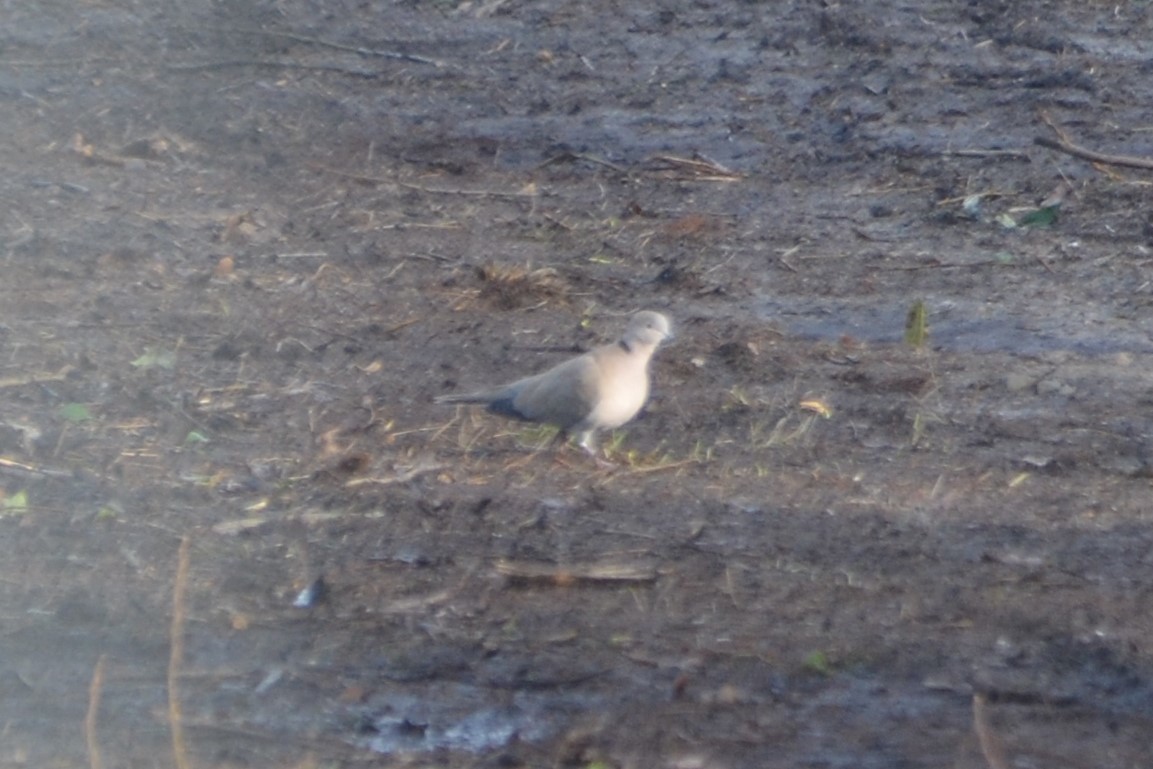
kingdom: Animalia
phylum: Chordata
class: Aves
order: Columbiformes
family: Columbidae
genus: Streptopelia
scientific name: Streptopelia decaocto
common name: Eurasian collared dove
